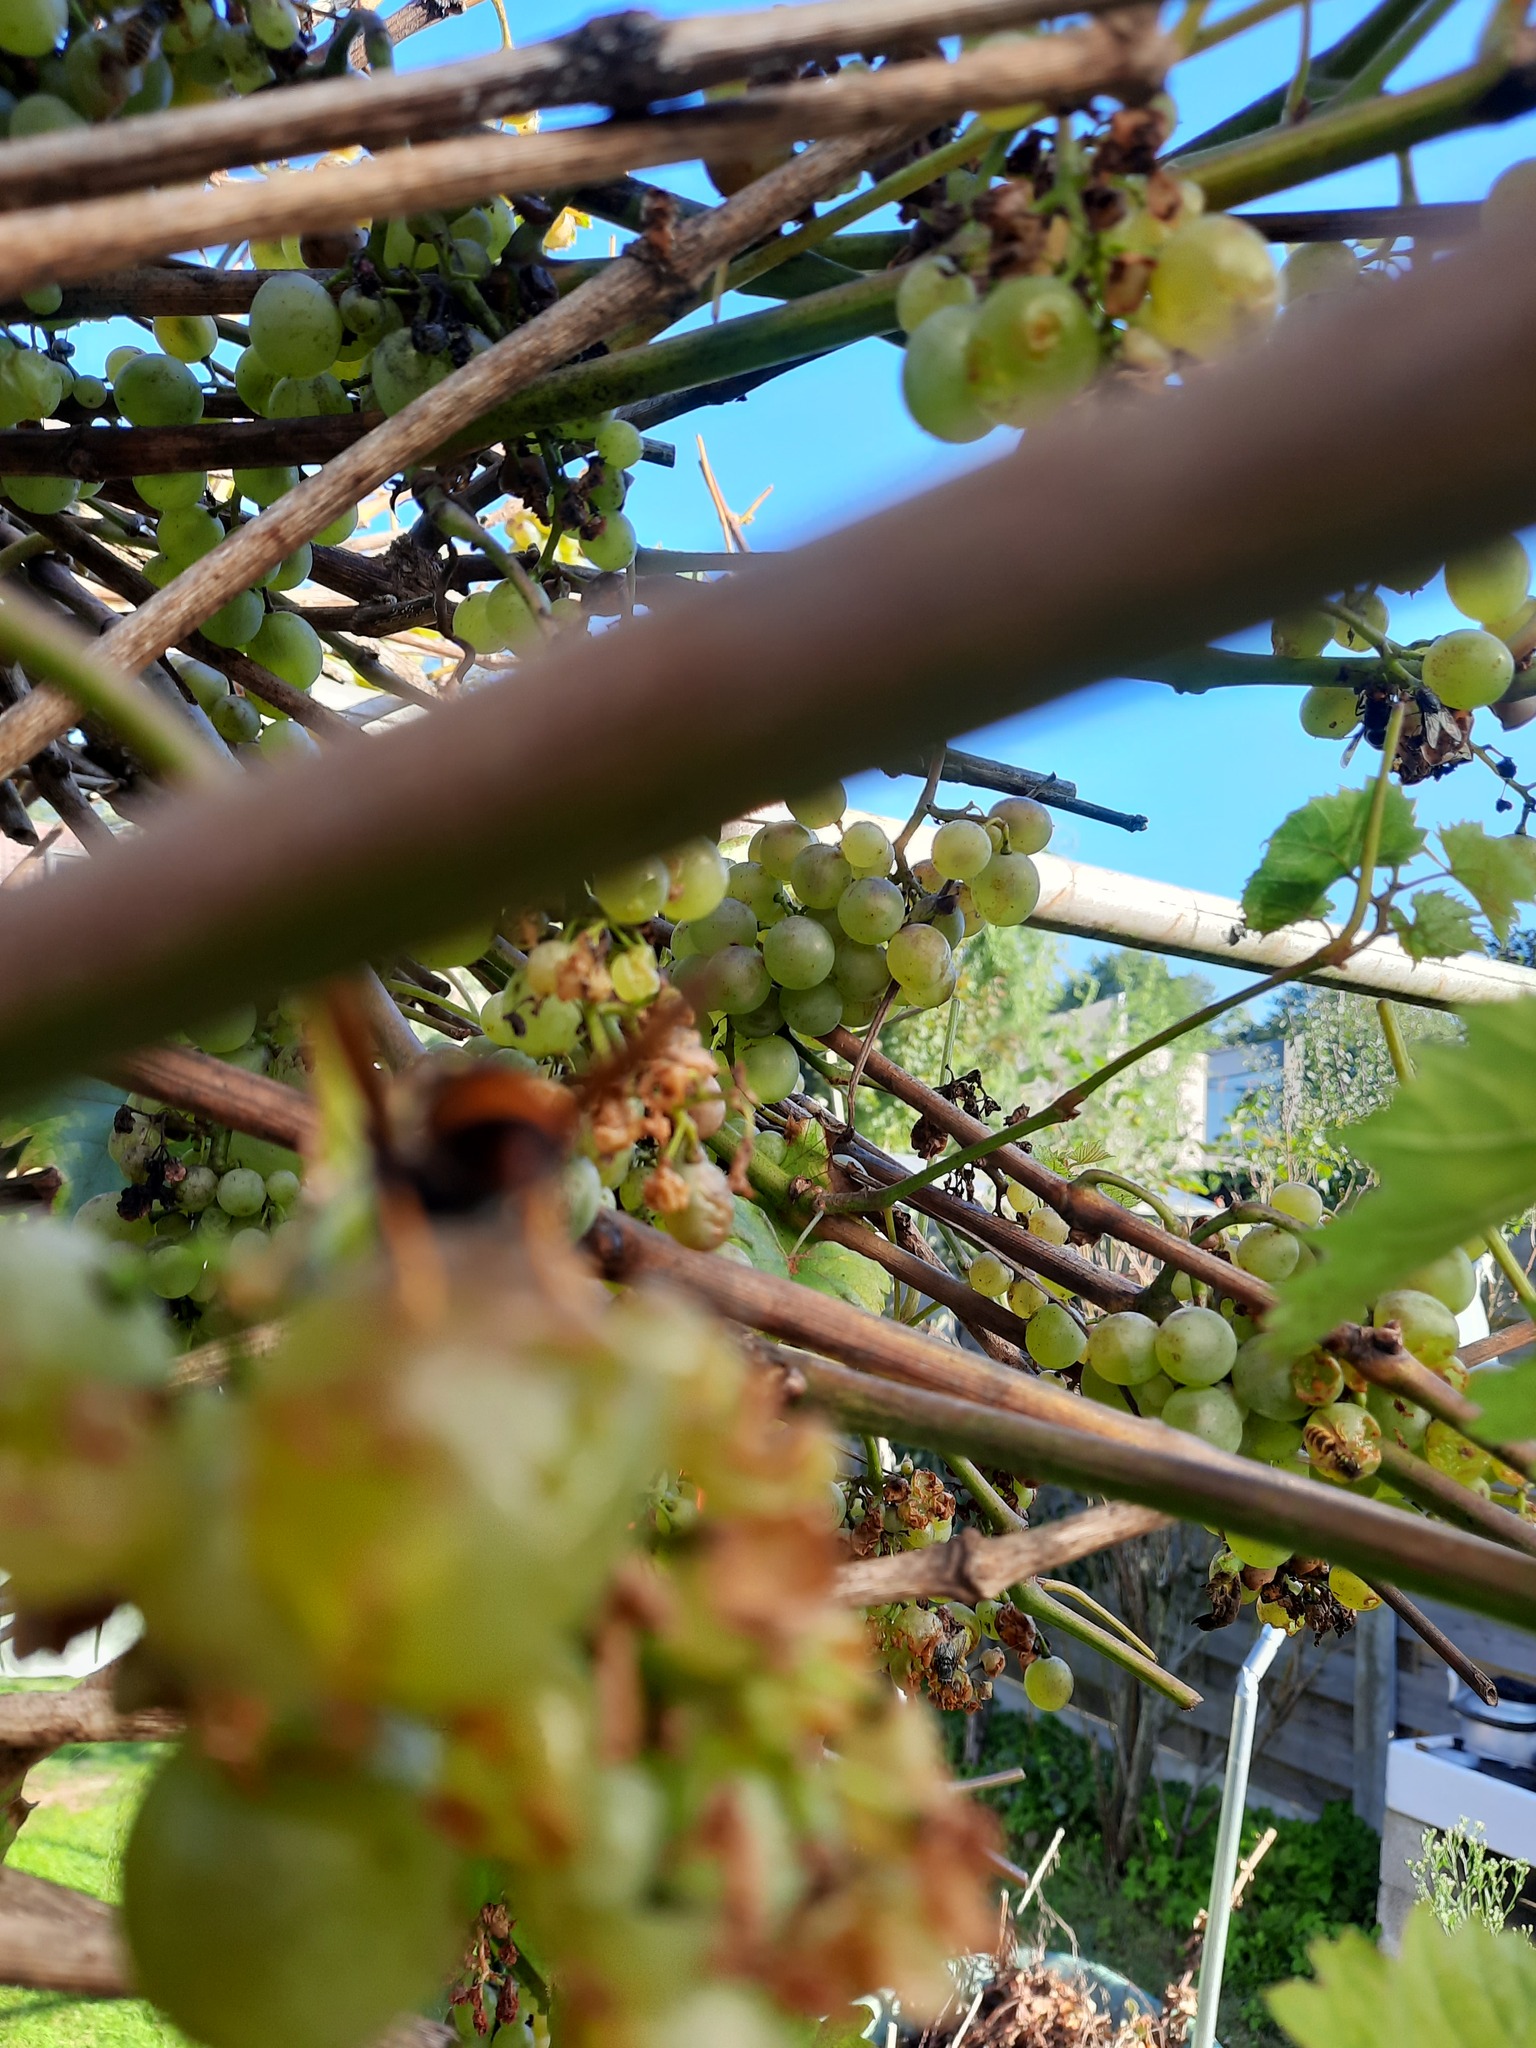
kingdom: Animalia
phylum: Arthropoda
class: Insecta
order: Hymenoptera
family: Vespidae
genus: Vespa
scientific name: Vespa velutina
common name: Asian hornet
